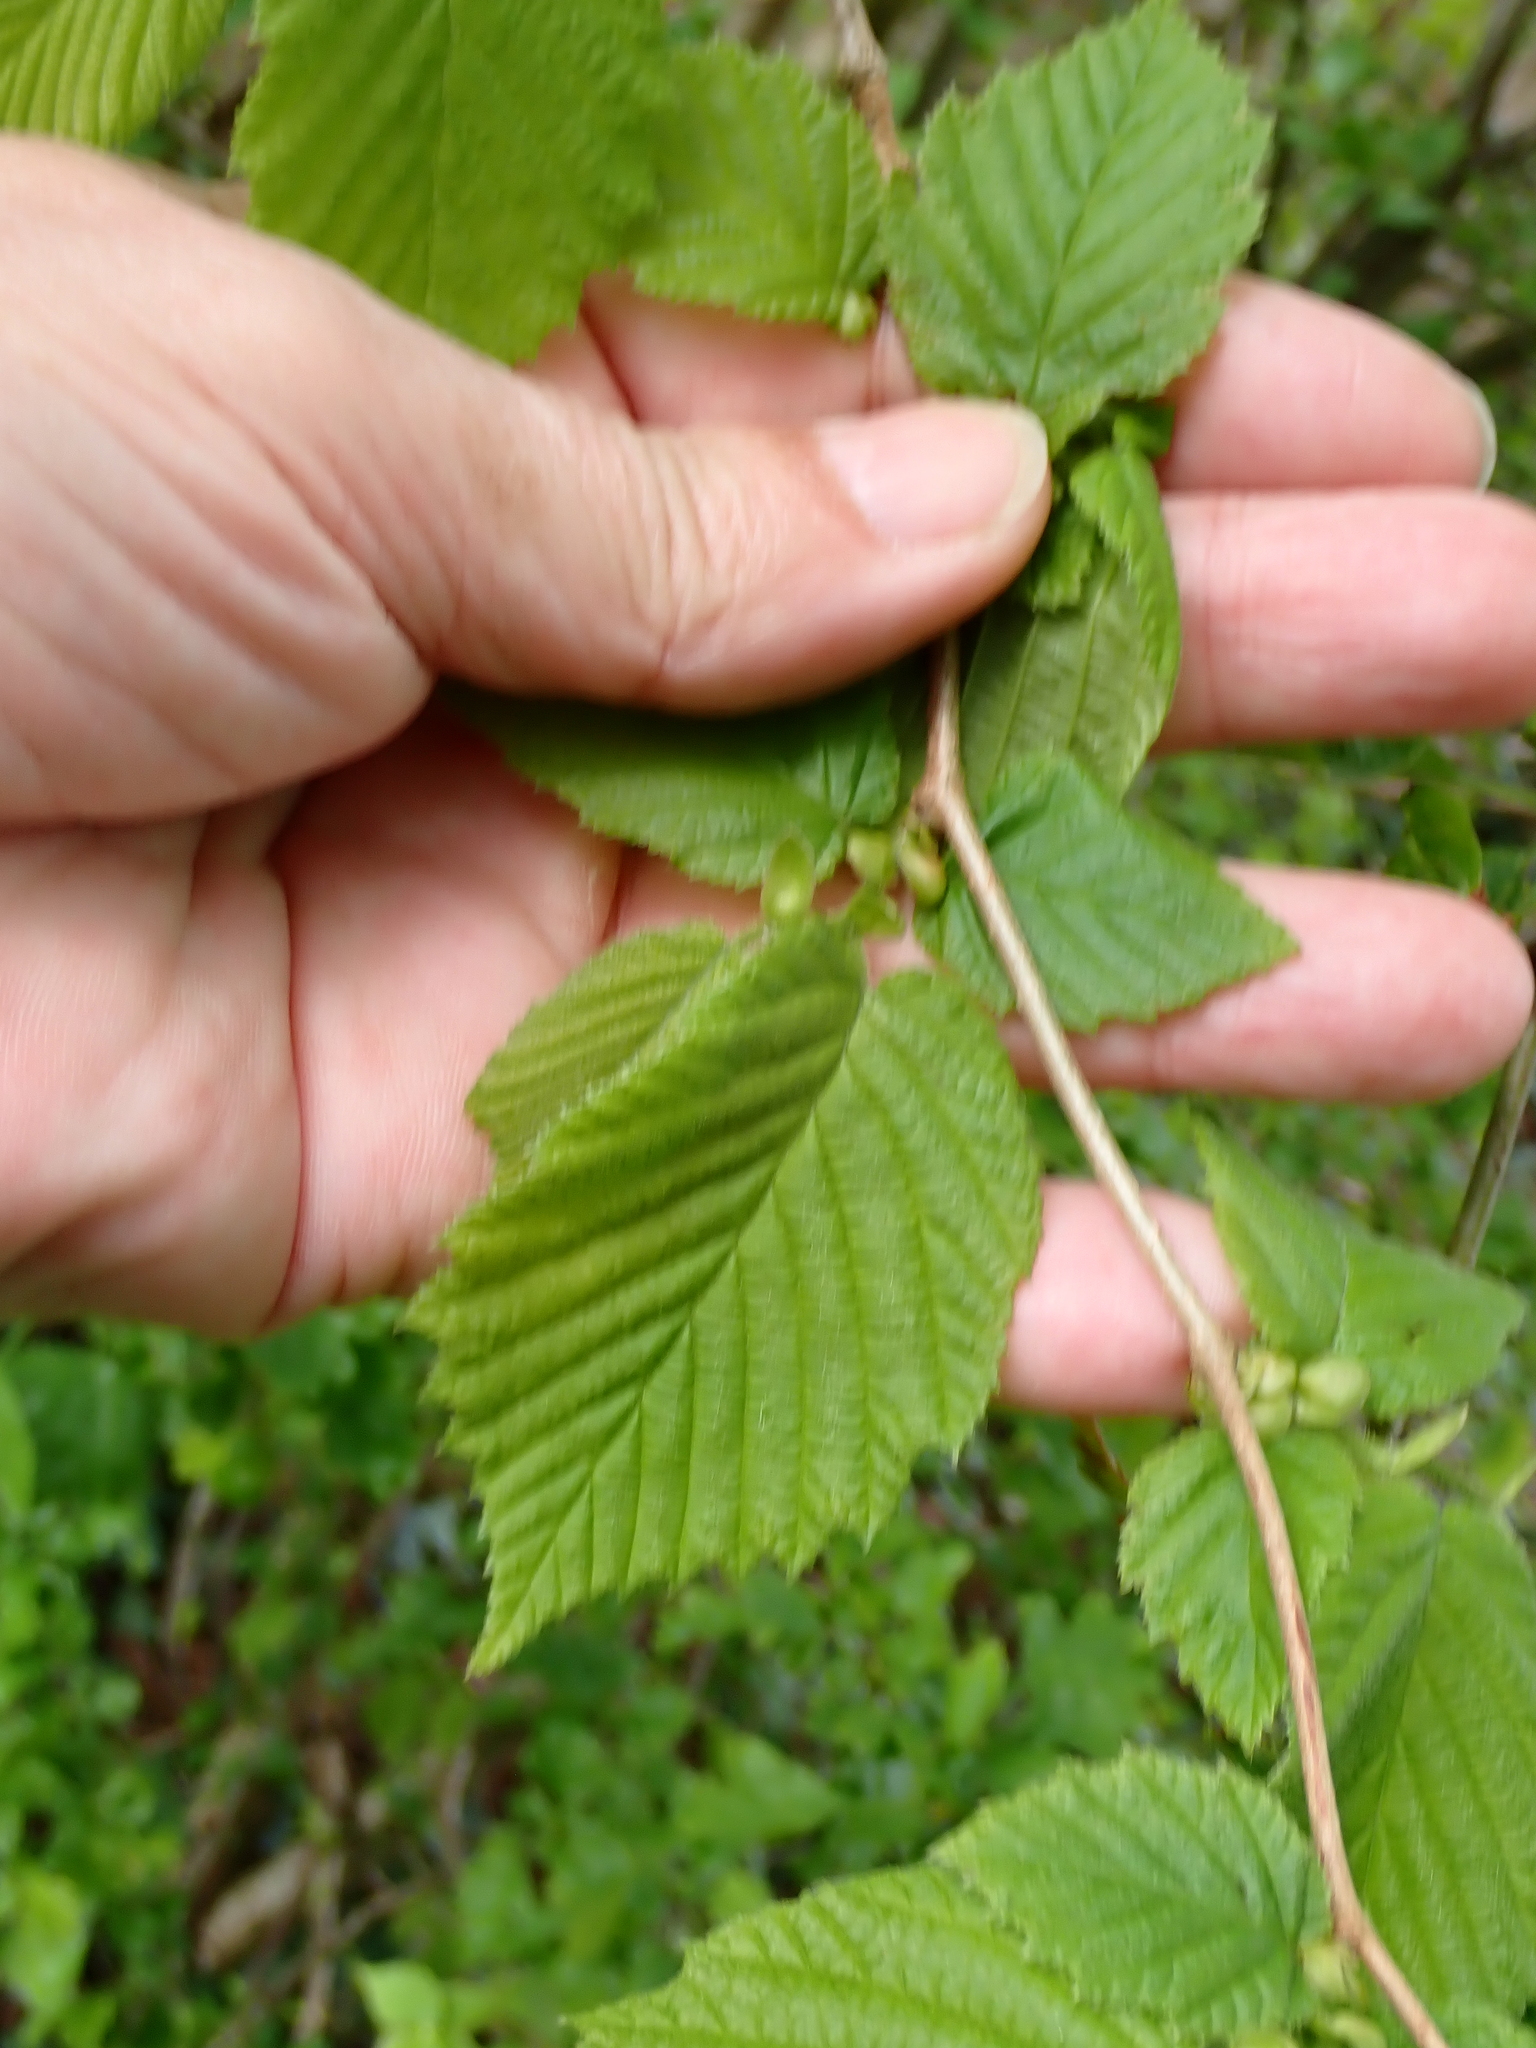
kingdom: Plantae
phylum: Tracheophyta
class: Magnoliopsida
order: Fagales
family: Betulaceae
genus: Corylus
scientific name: Corylus avellana
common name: European hazel
